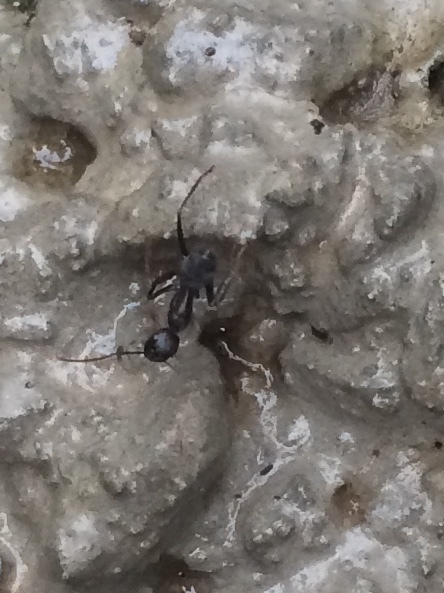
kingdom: Animalia
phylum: Arthropoda
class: Insecta
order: Hymenoptera
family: Formicidae
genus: Camponotus
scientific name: Camponotus compressus
